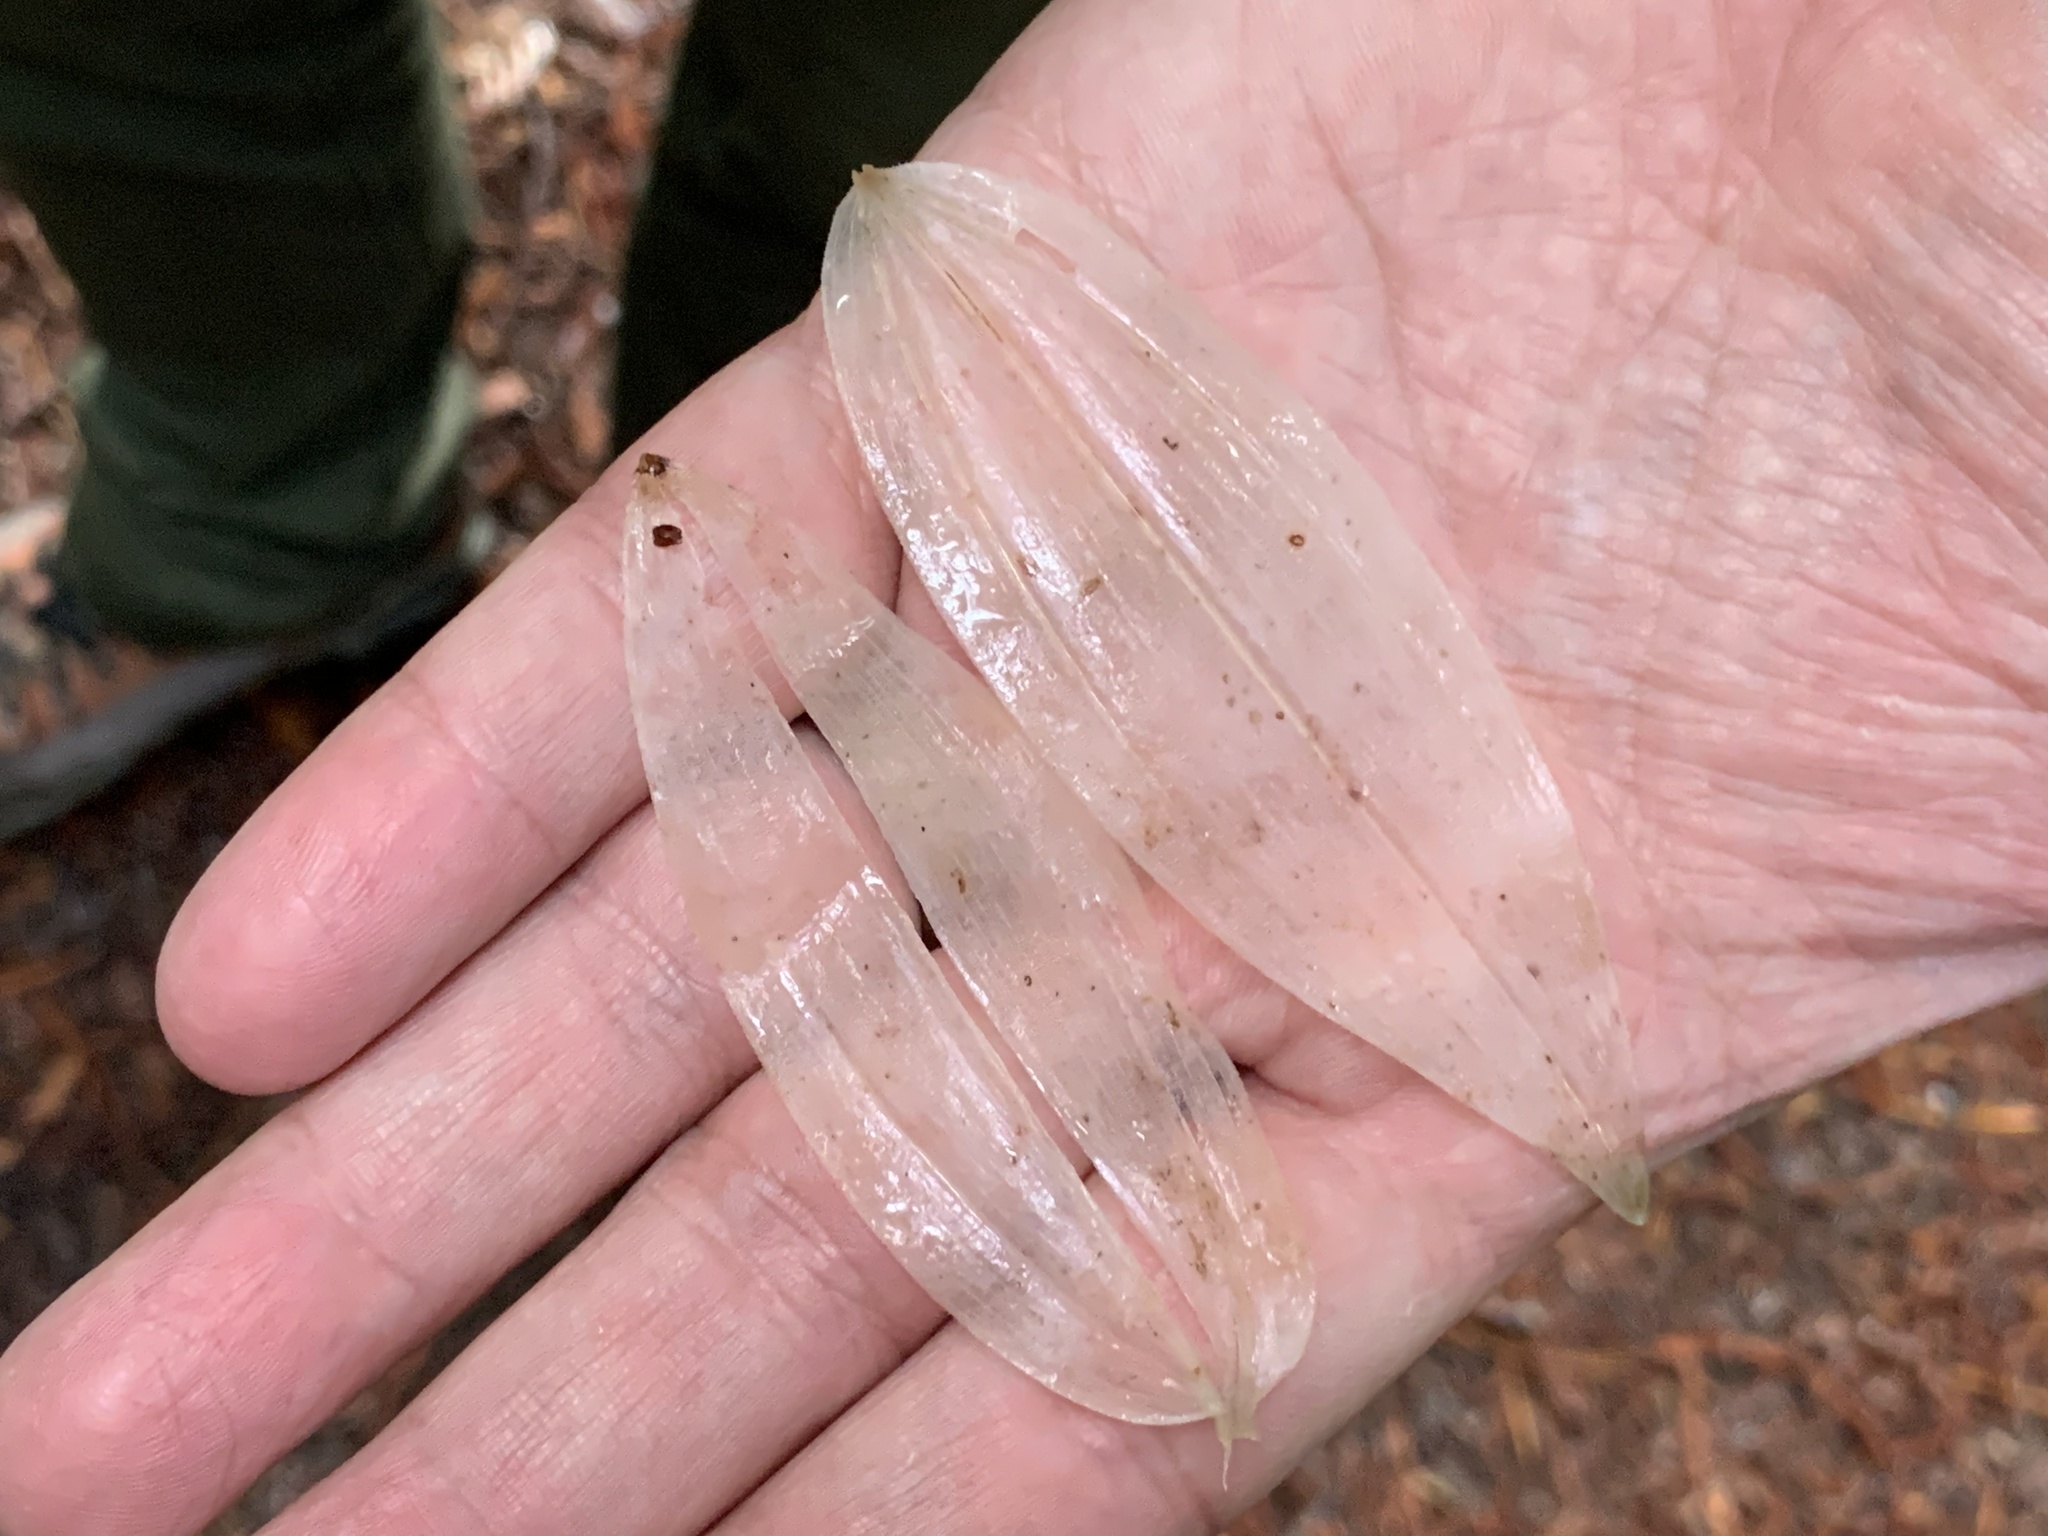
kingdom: Plantae
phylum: Tracheophyta
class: Liliopsida
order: Asparagales
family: Asparagaceae
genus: Maianthemum
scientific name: Maianthemum racemosum
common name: False spikenard
